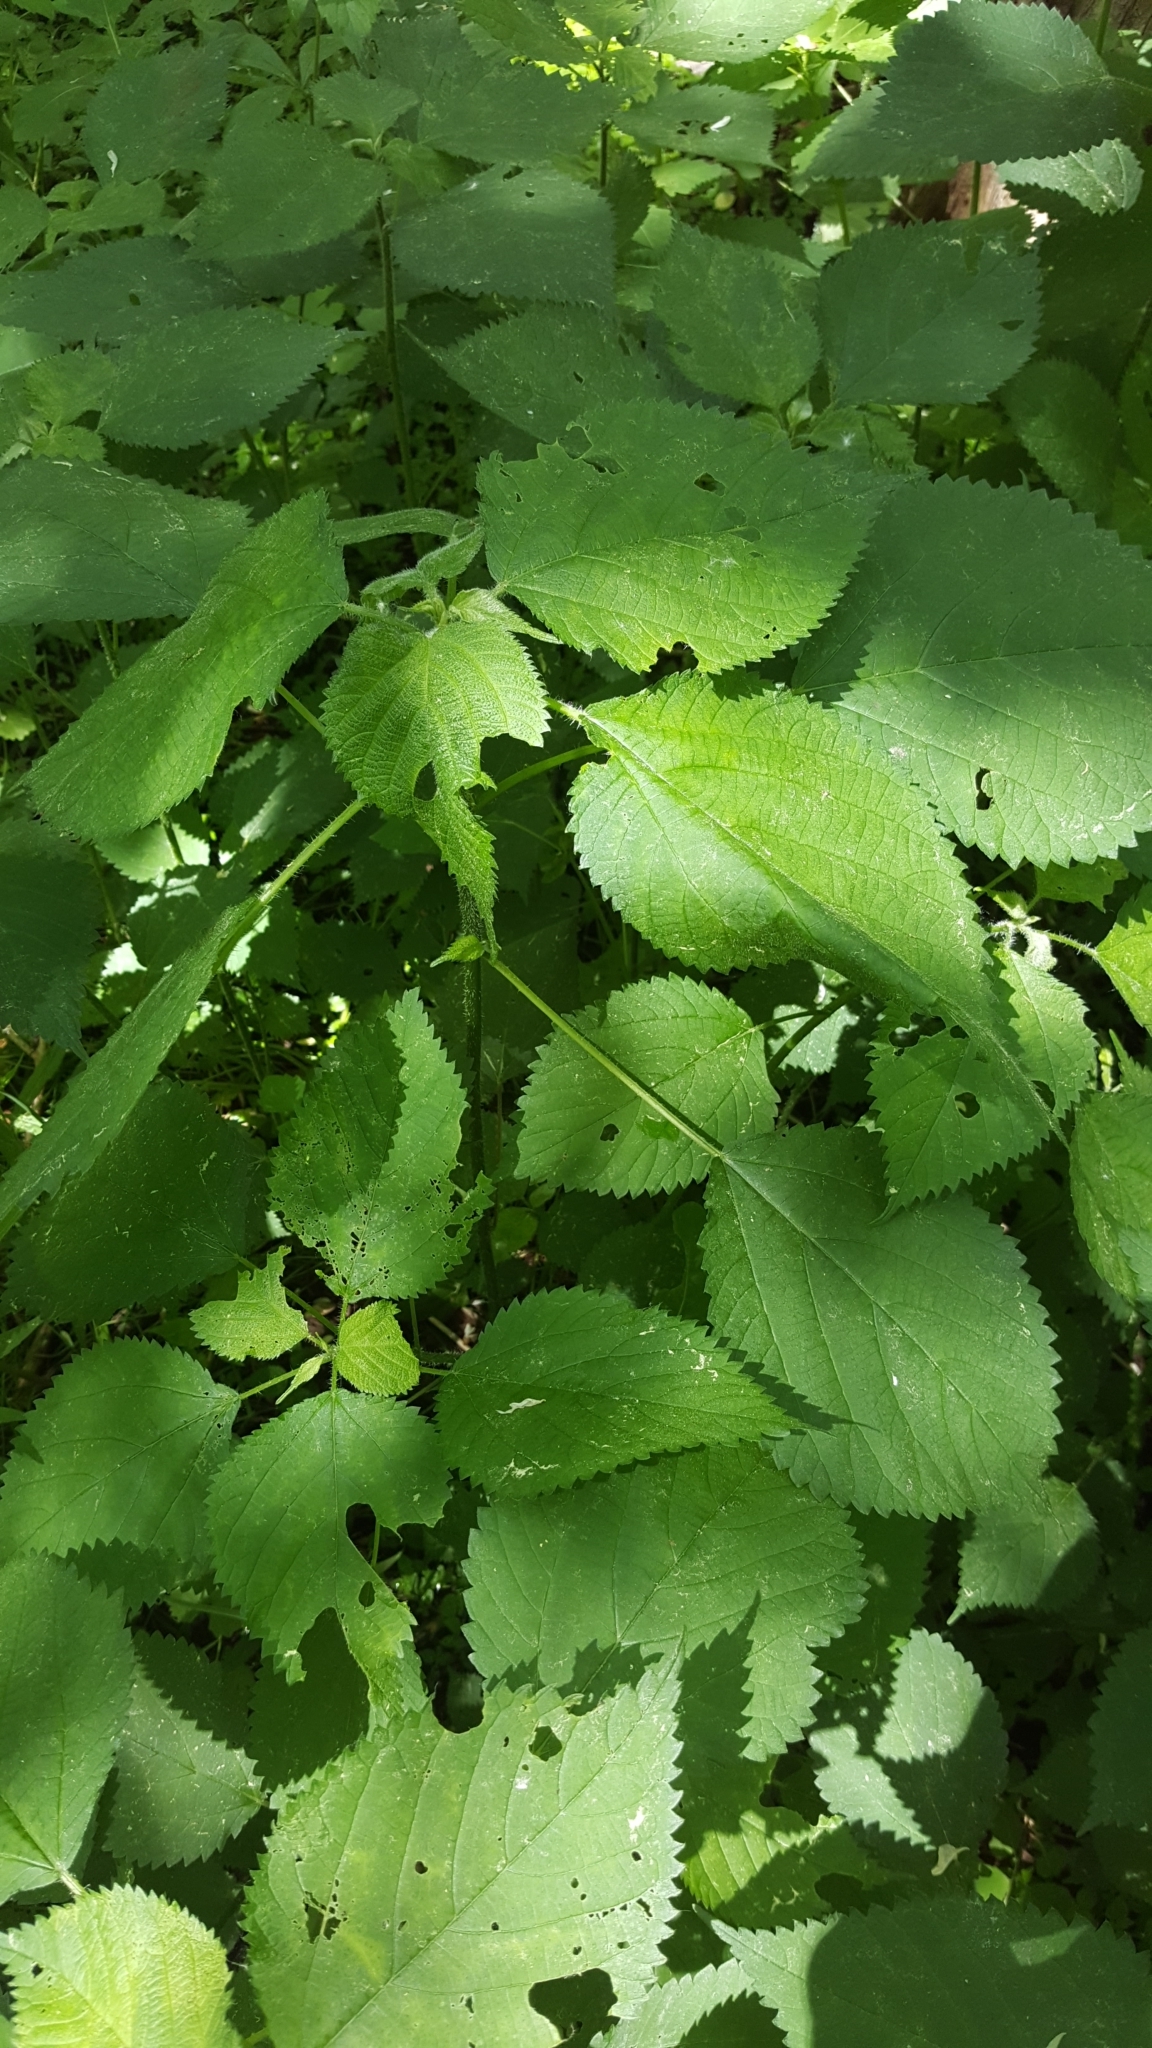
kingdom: Plantae
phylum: Tracheophyta
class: Magnoliopsida
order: Rosales
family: Urticaceae
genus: Laportea
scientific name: Laportea canadensis
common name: Canada nettle
